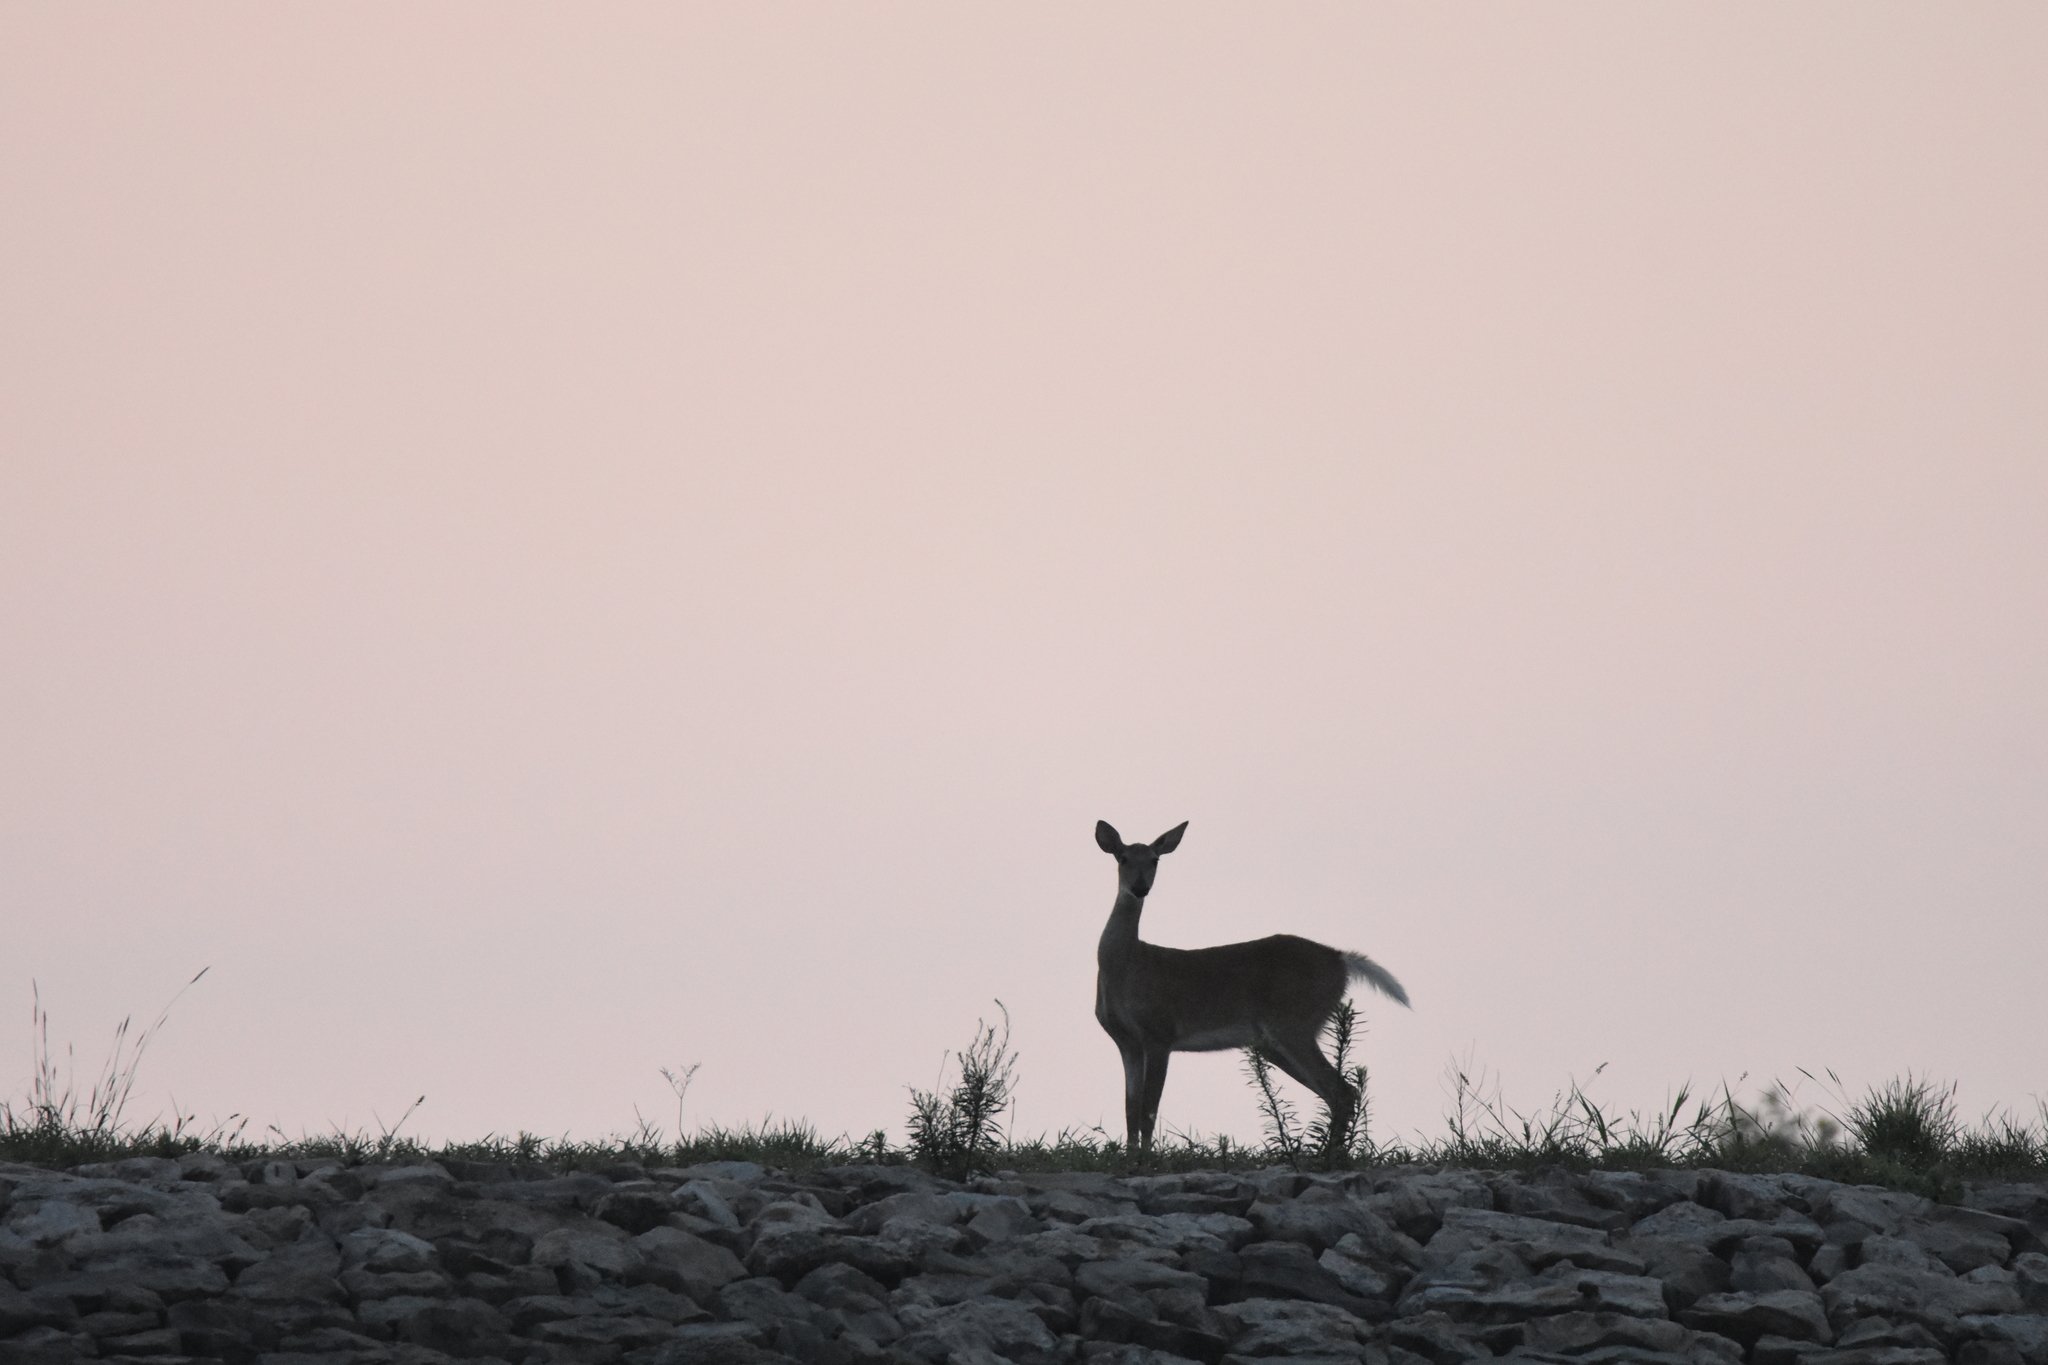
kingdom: Animalia
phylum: Chordata
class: Mammalia
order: Artiodactyla
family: Cervidae
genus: Odocoileus
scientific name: Odocoileus virginianus
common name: White-tailed deer
